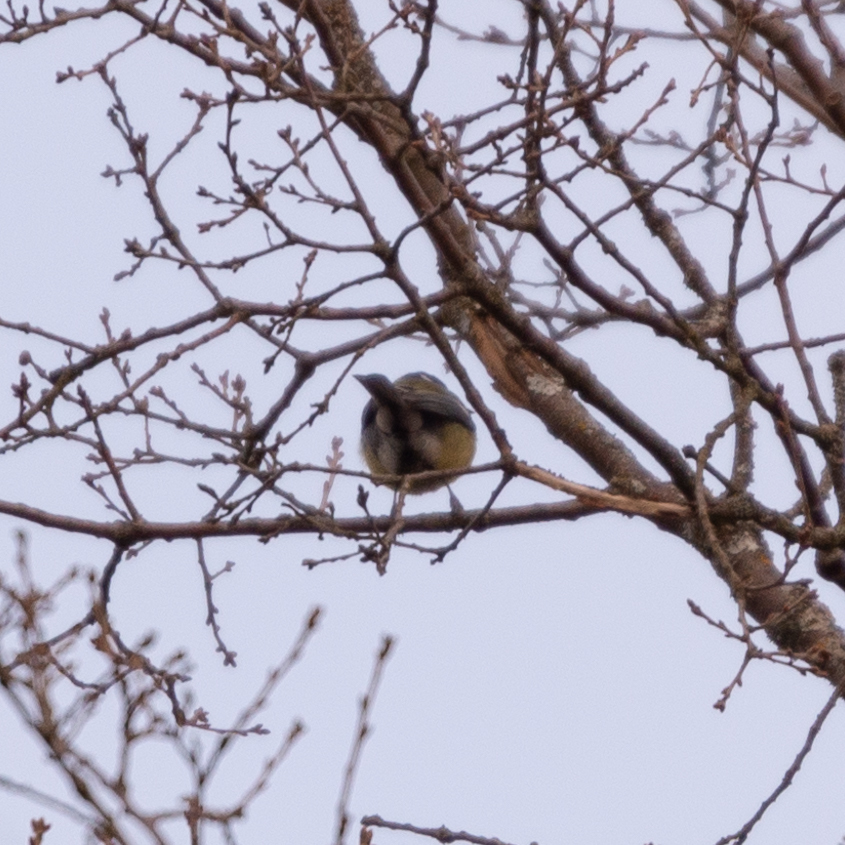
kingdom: Animalia
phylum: Chordata
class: Aves
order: Passeriformes
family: Paridae
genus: Parus
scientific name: Parus major
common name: Great tit
